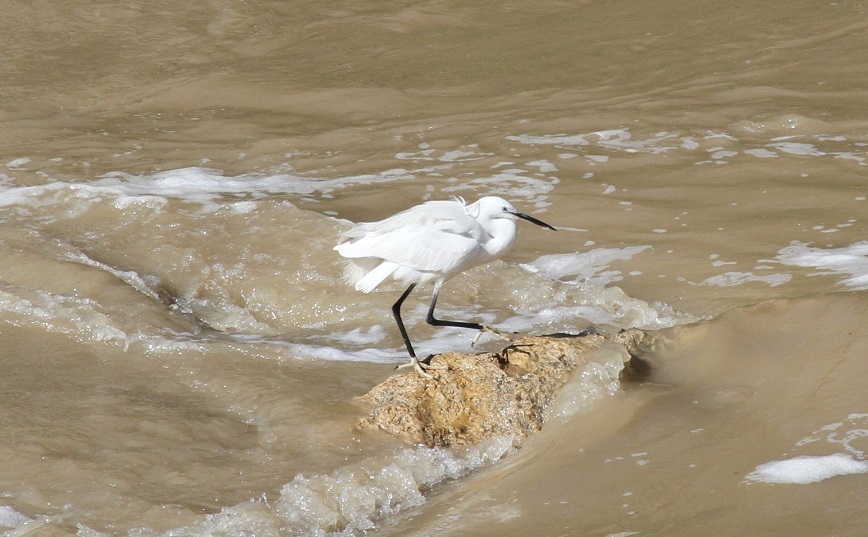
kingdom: Animalia
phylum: Chordata
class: Aves
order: Pelecaniformes
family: Ardeidae
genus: Egretta
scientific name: Egretta garzetta
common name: Little egret
